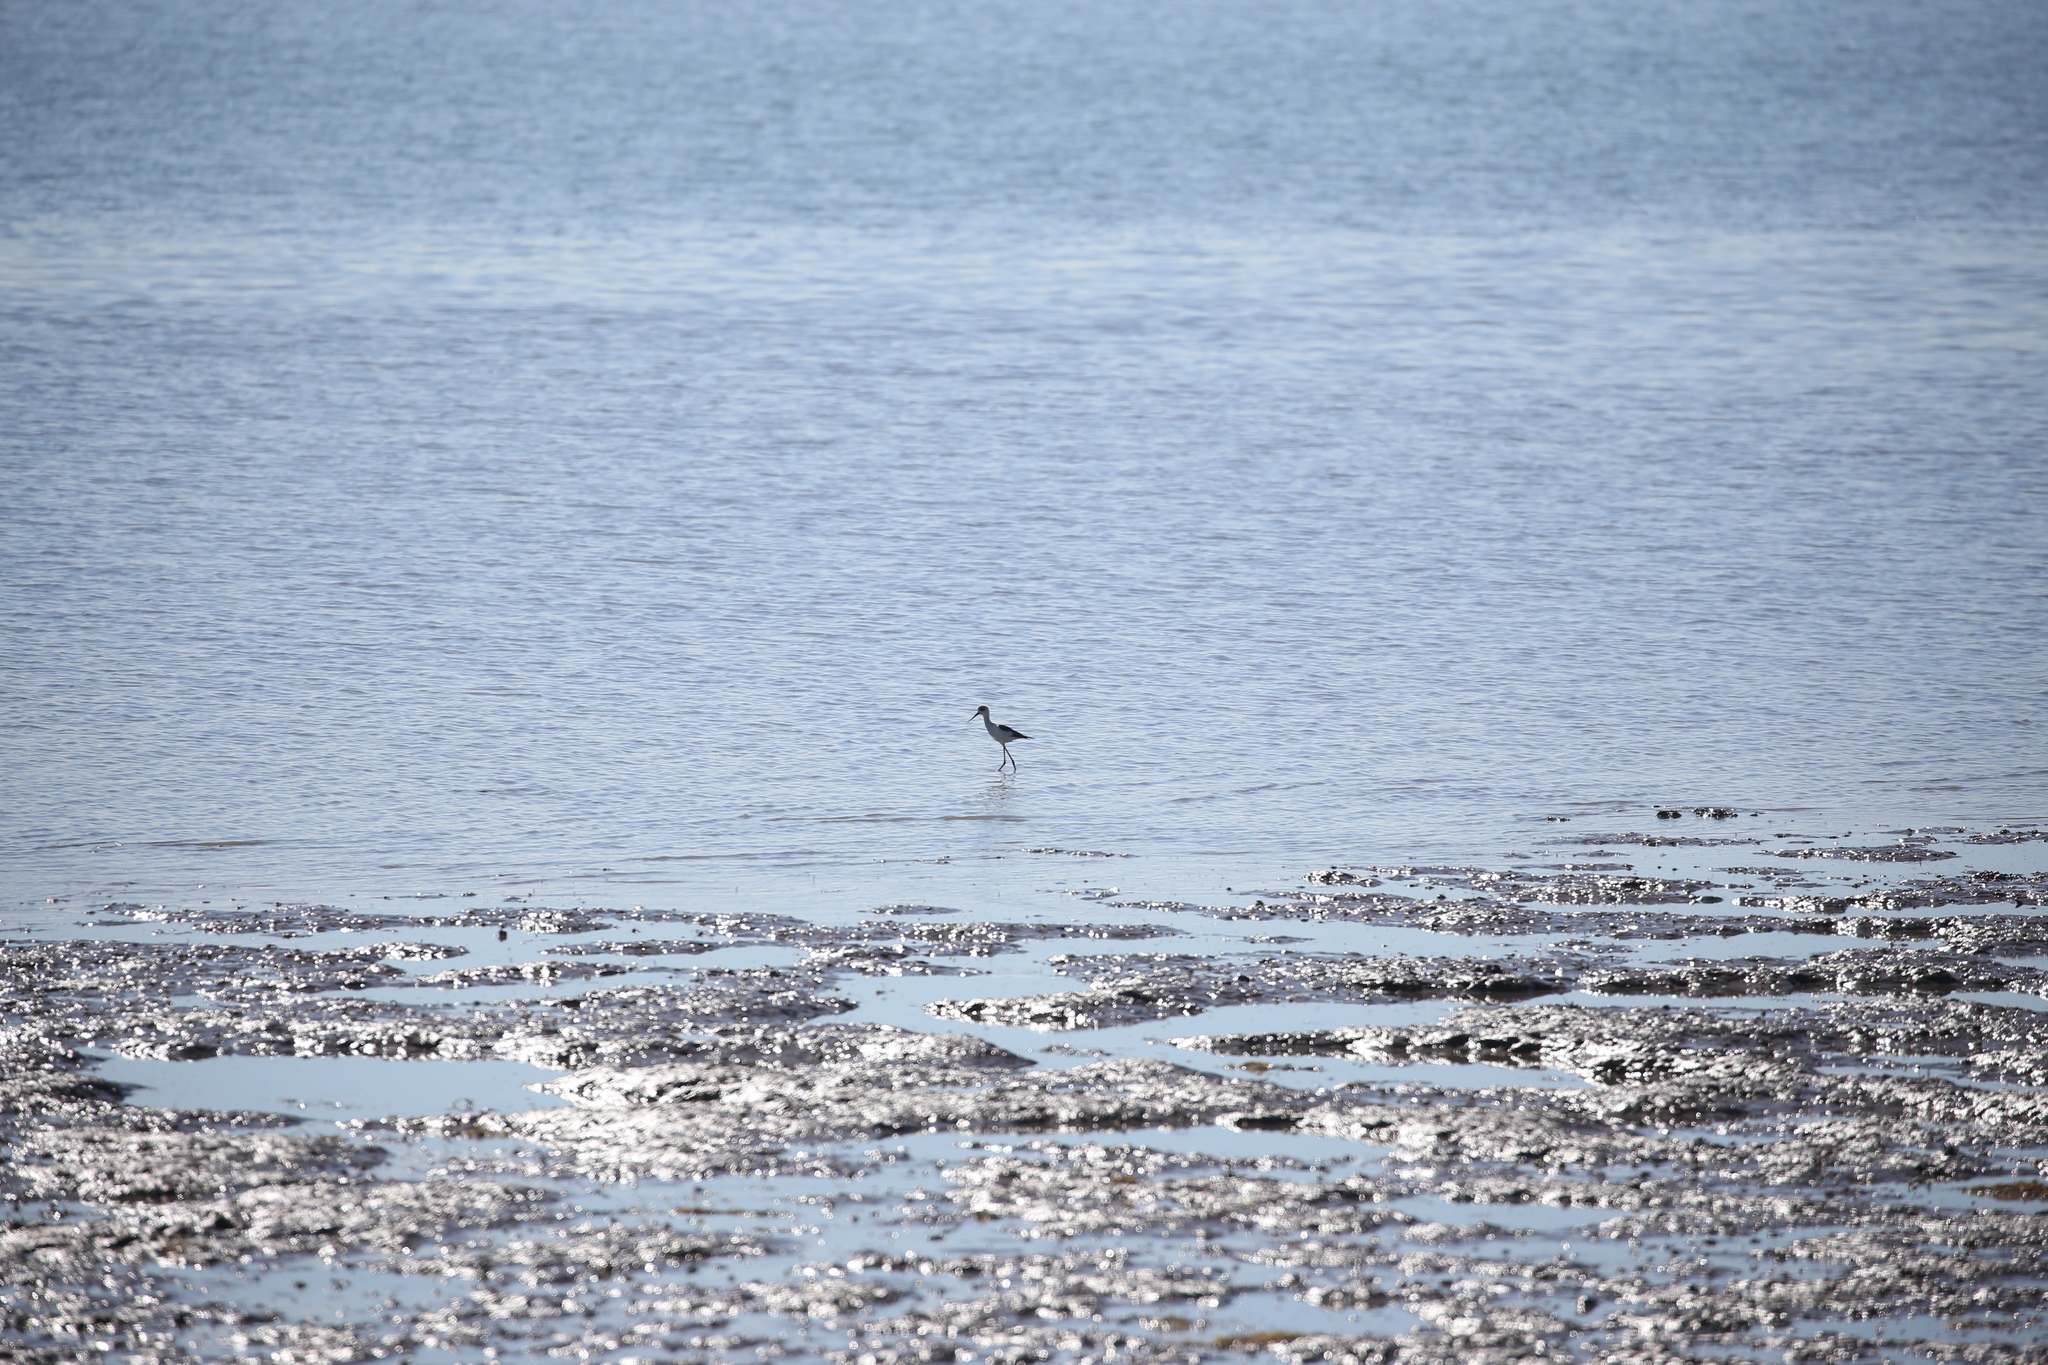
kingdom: Animalia
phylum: Chordata
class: Aves
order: Charadriiformes
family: Recurvirostridae
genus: Himantopus
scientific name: Himantopus leucocephalus
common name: White-headed stilt
